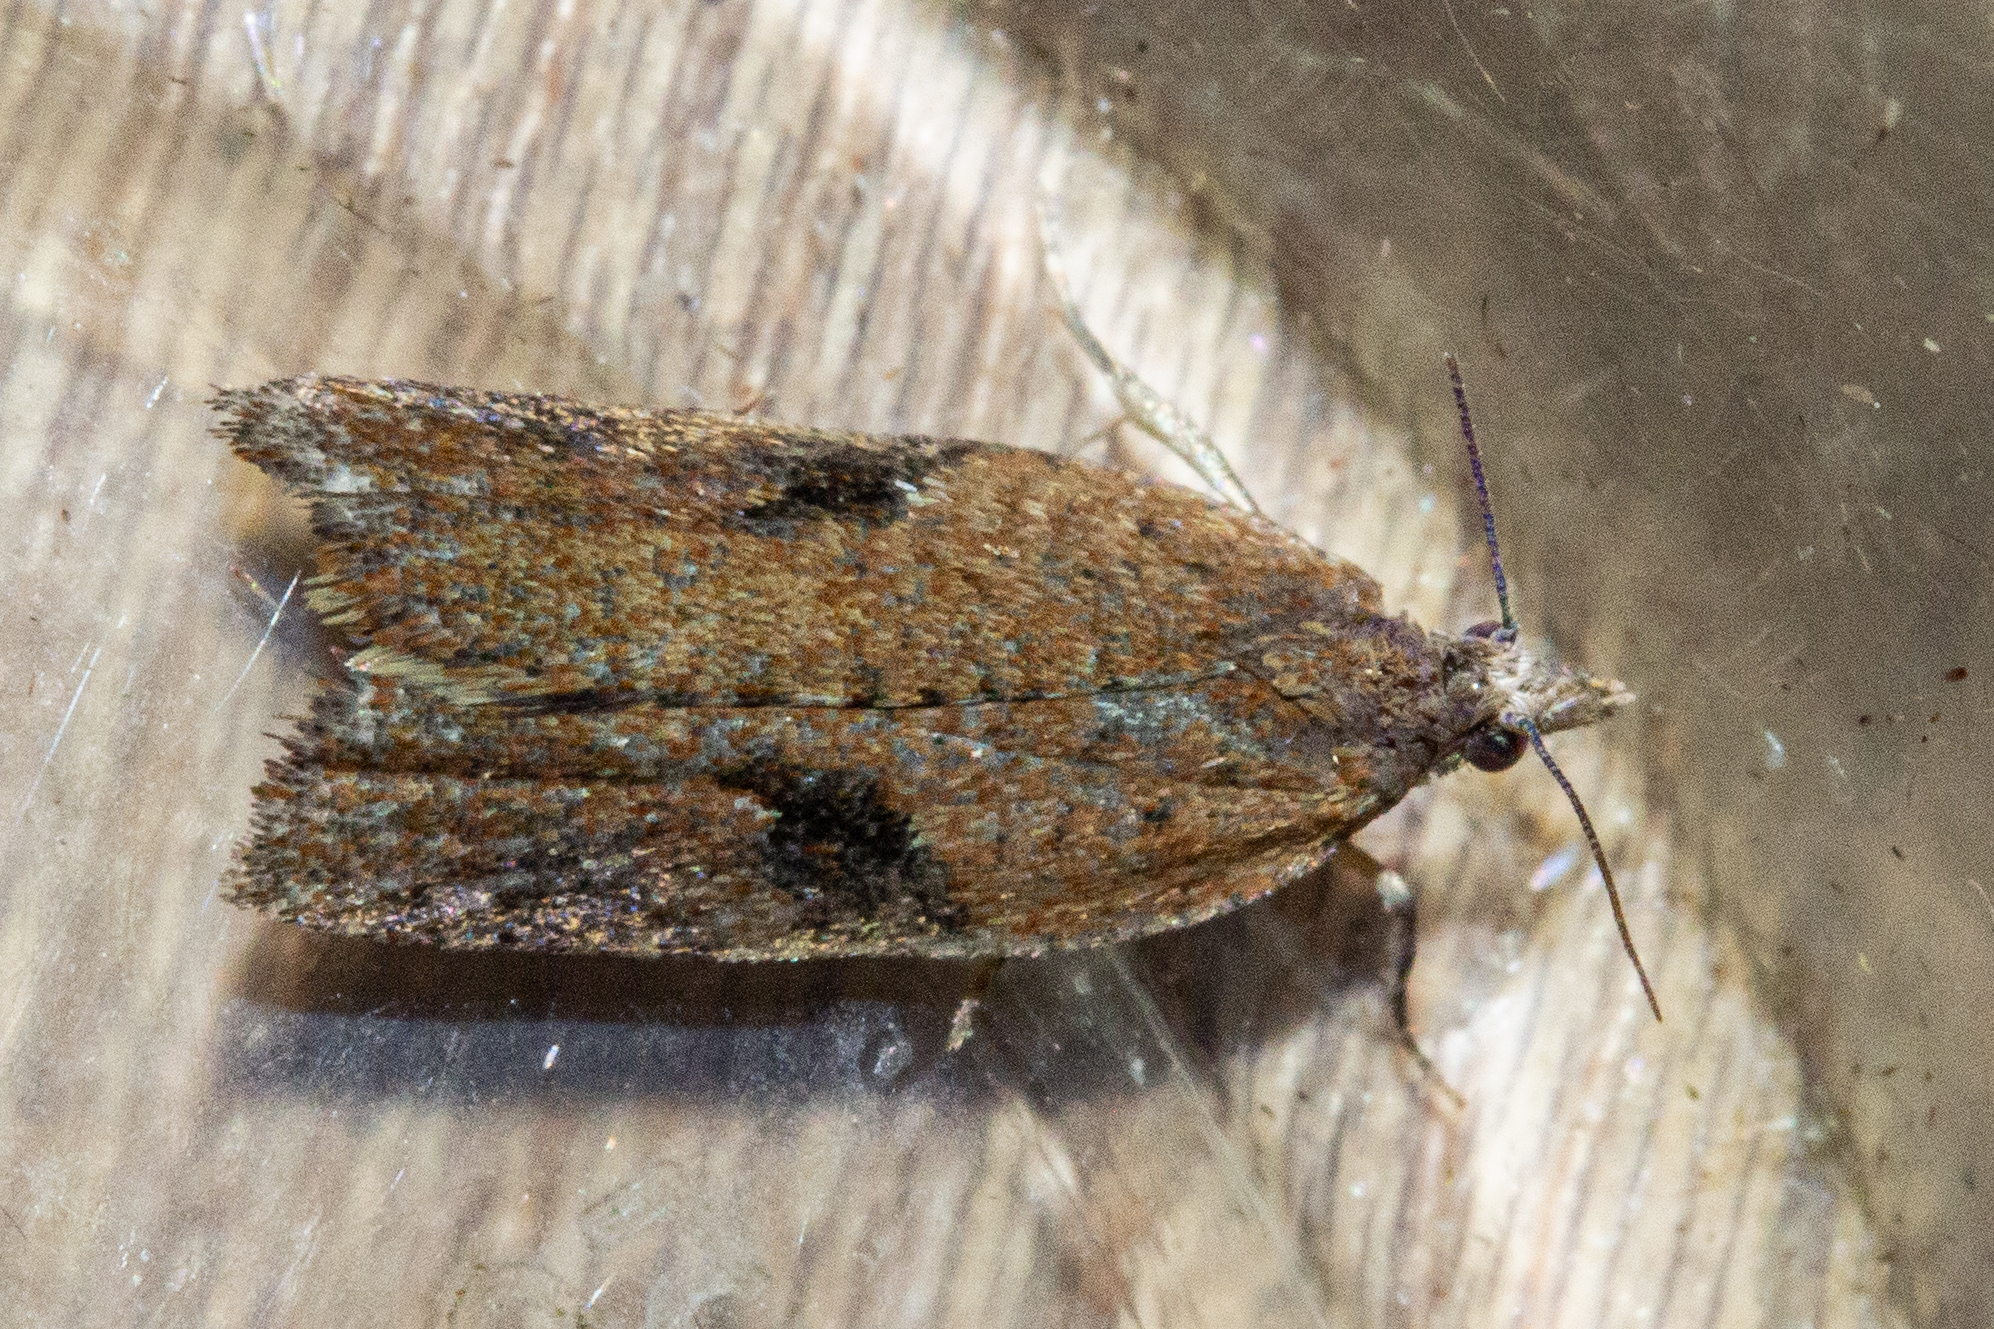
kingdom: Animalia
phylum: Arthropoda
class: Insecta
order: Lepidoptera
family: Tortricidae
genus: Capua
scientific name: Capua semiferana
